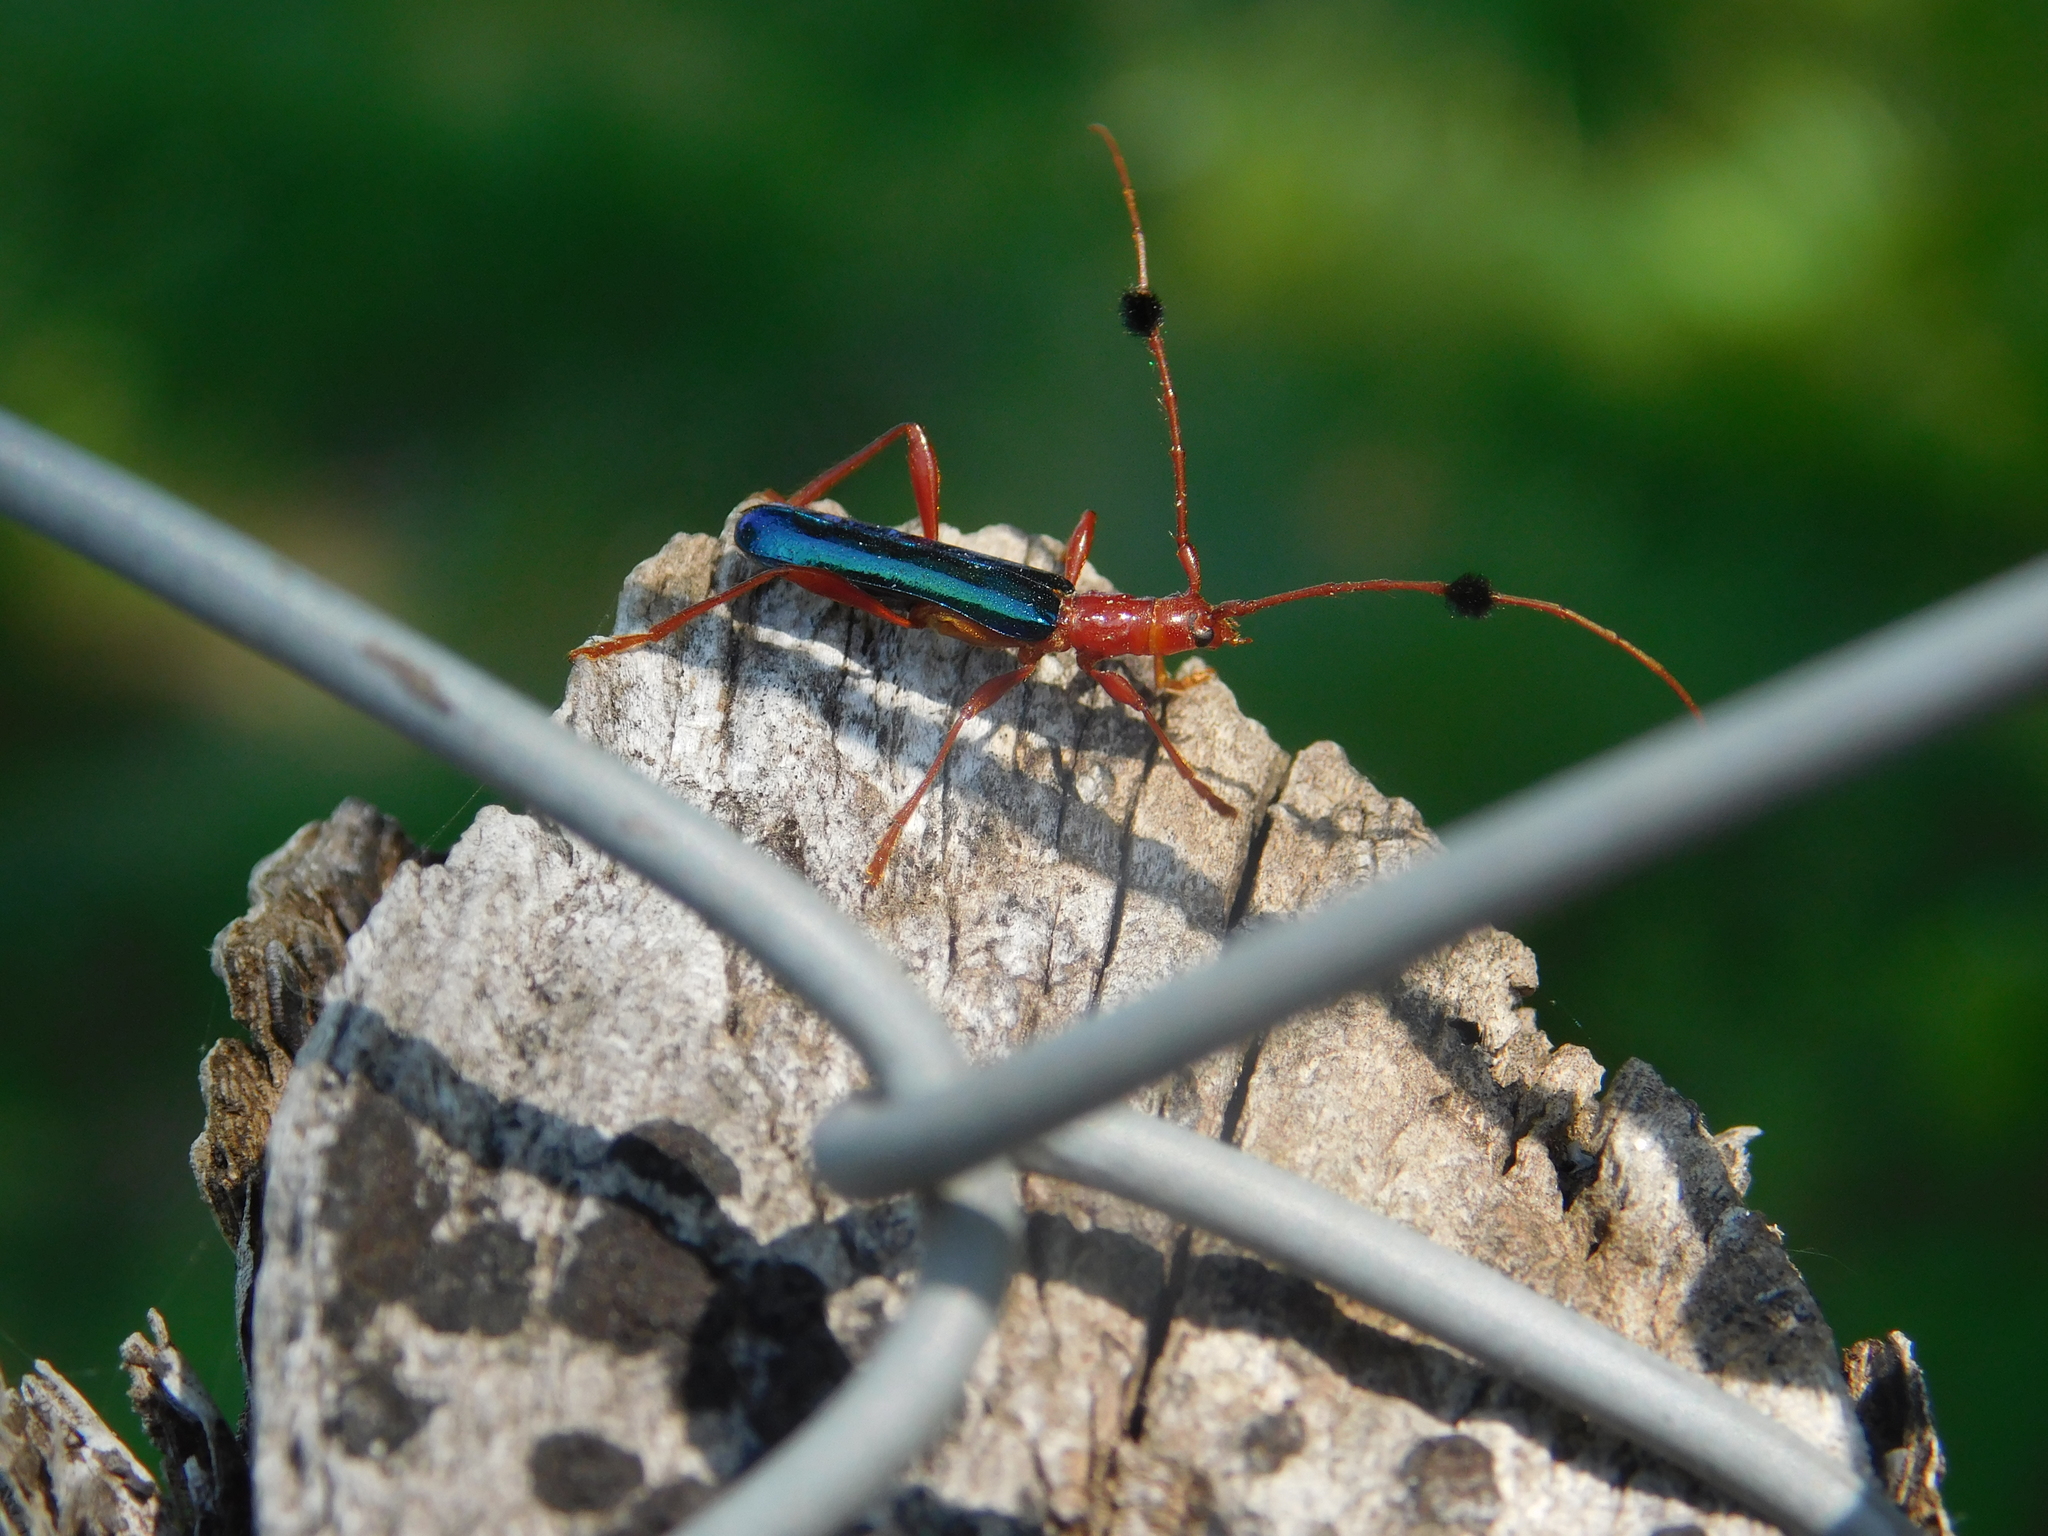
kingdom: Animalia
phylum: Arthropoda
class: Insecta
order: Coleoptera
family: Cerambycidae
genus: Paromoeocerus
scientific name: Paromoeocerus barbicornis
